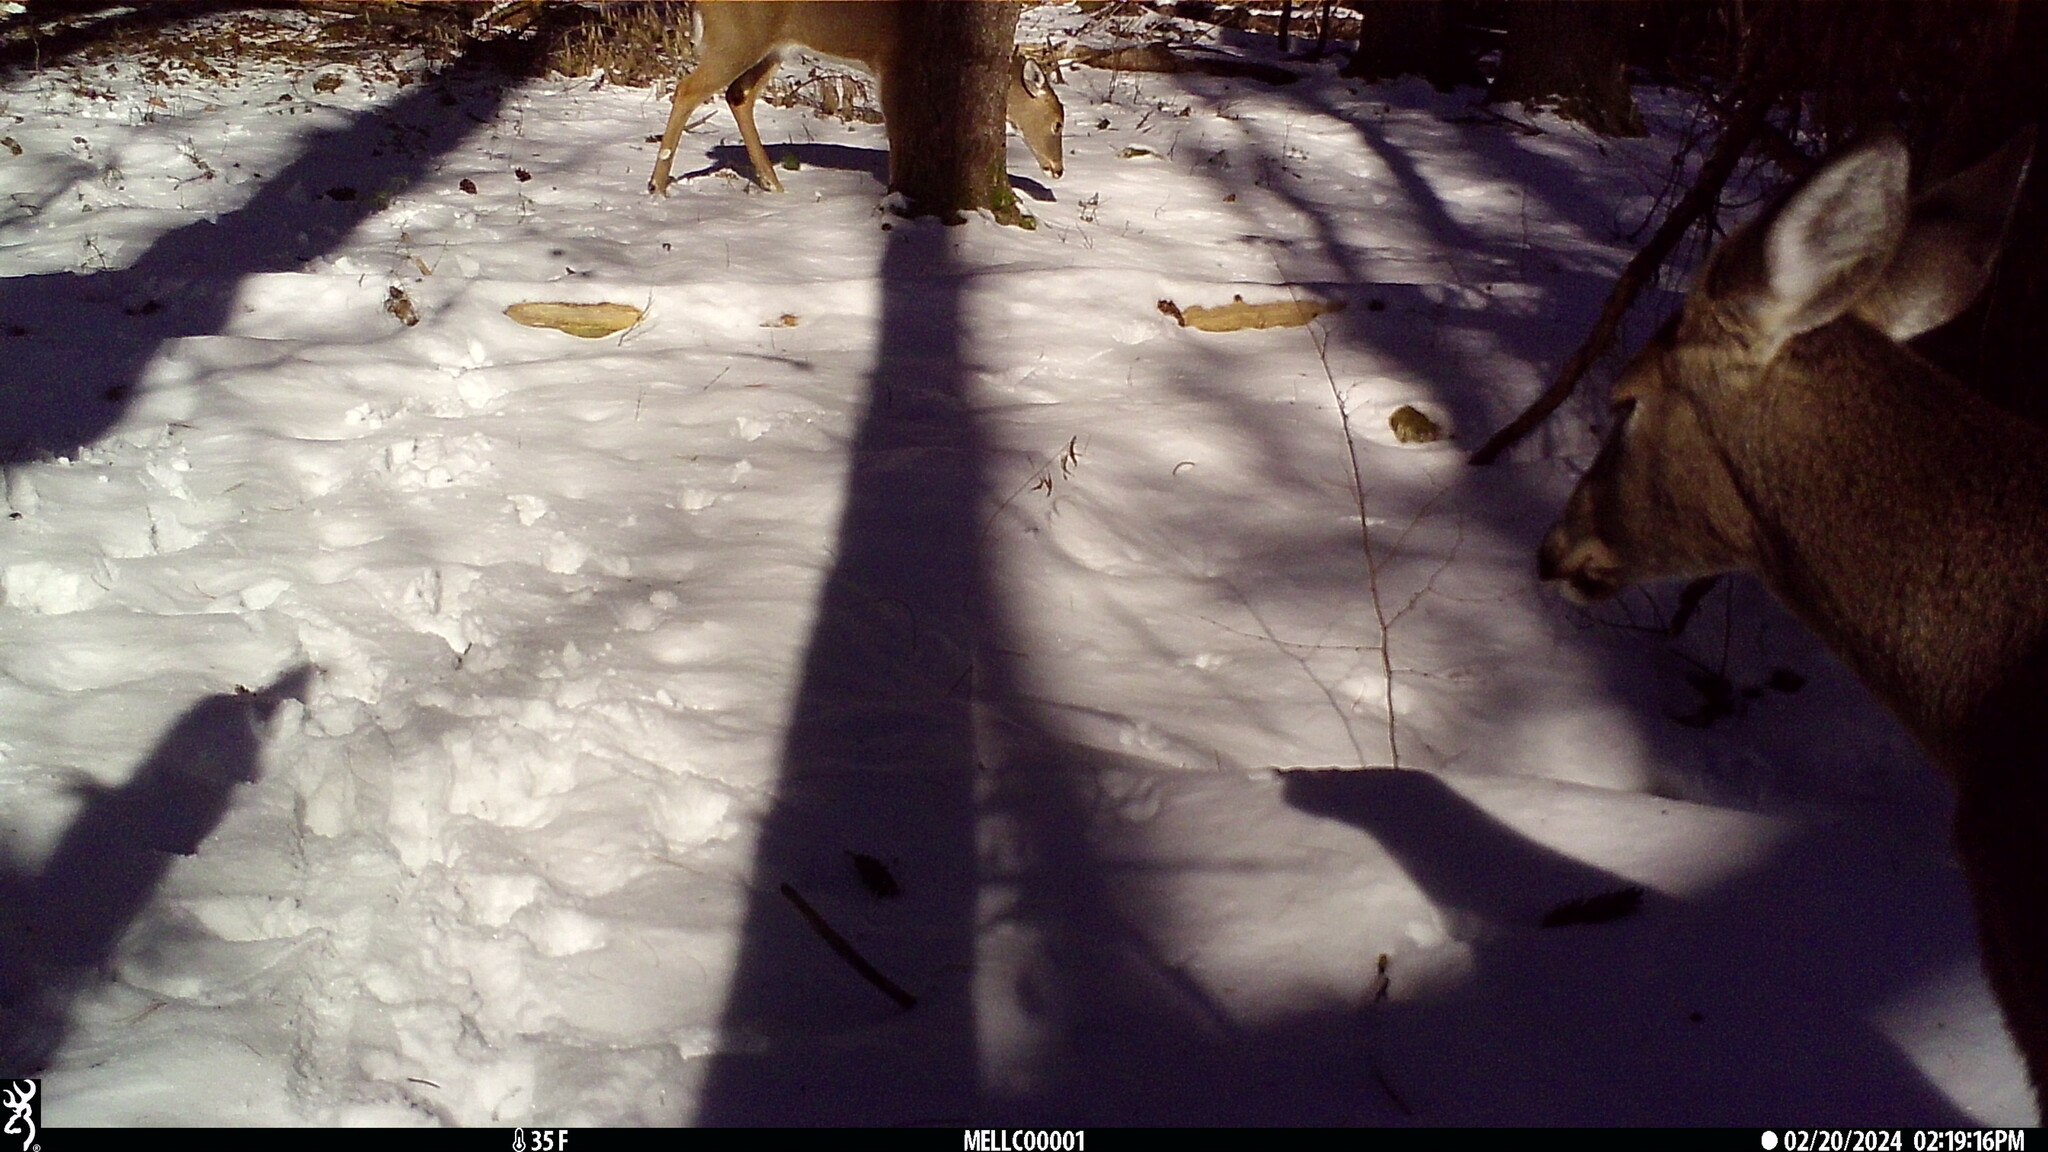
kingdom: Animalia
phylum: Chordata
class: Mammalia
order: Artiodactyla
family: Cervidae
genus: Odocoileus
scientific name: Odocoileus virginianus
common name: White-tailed deer
